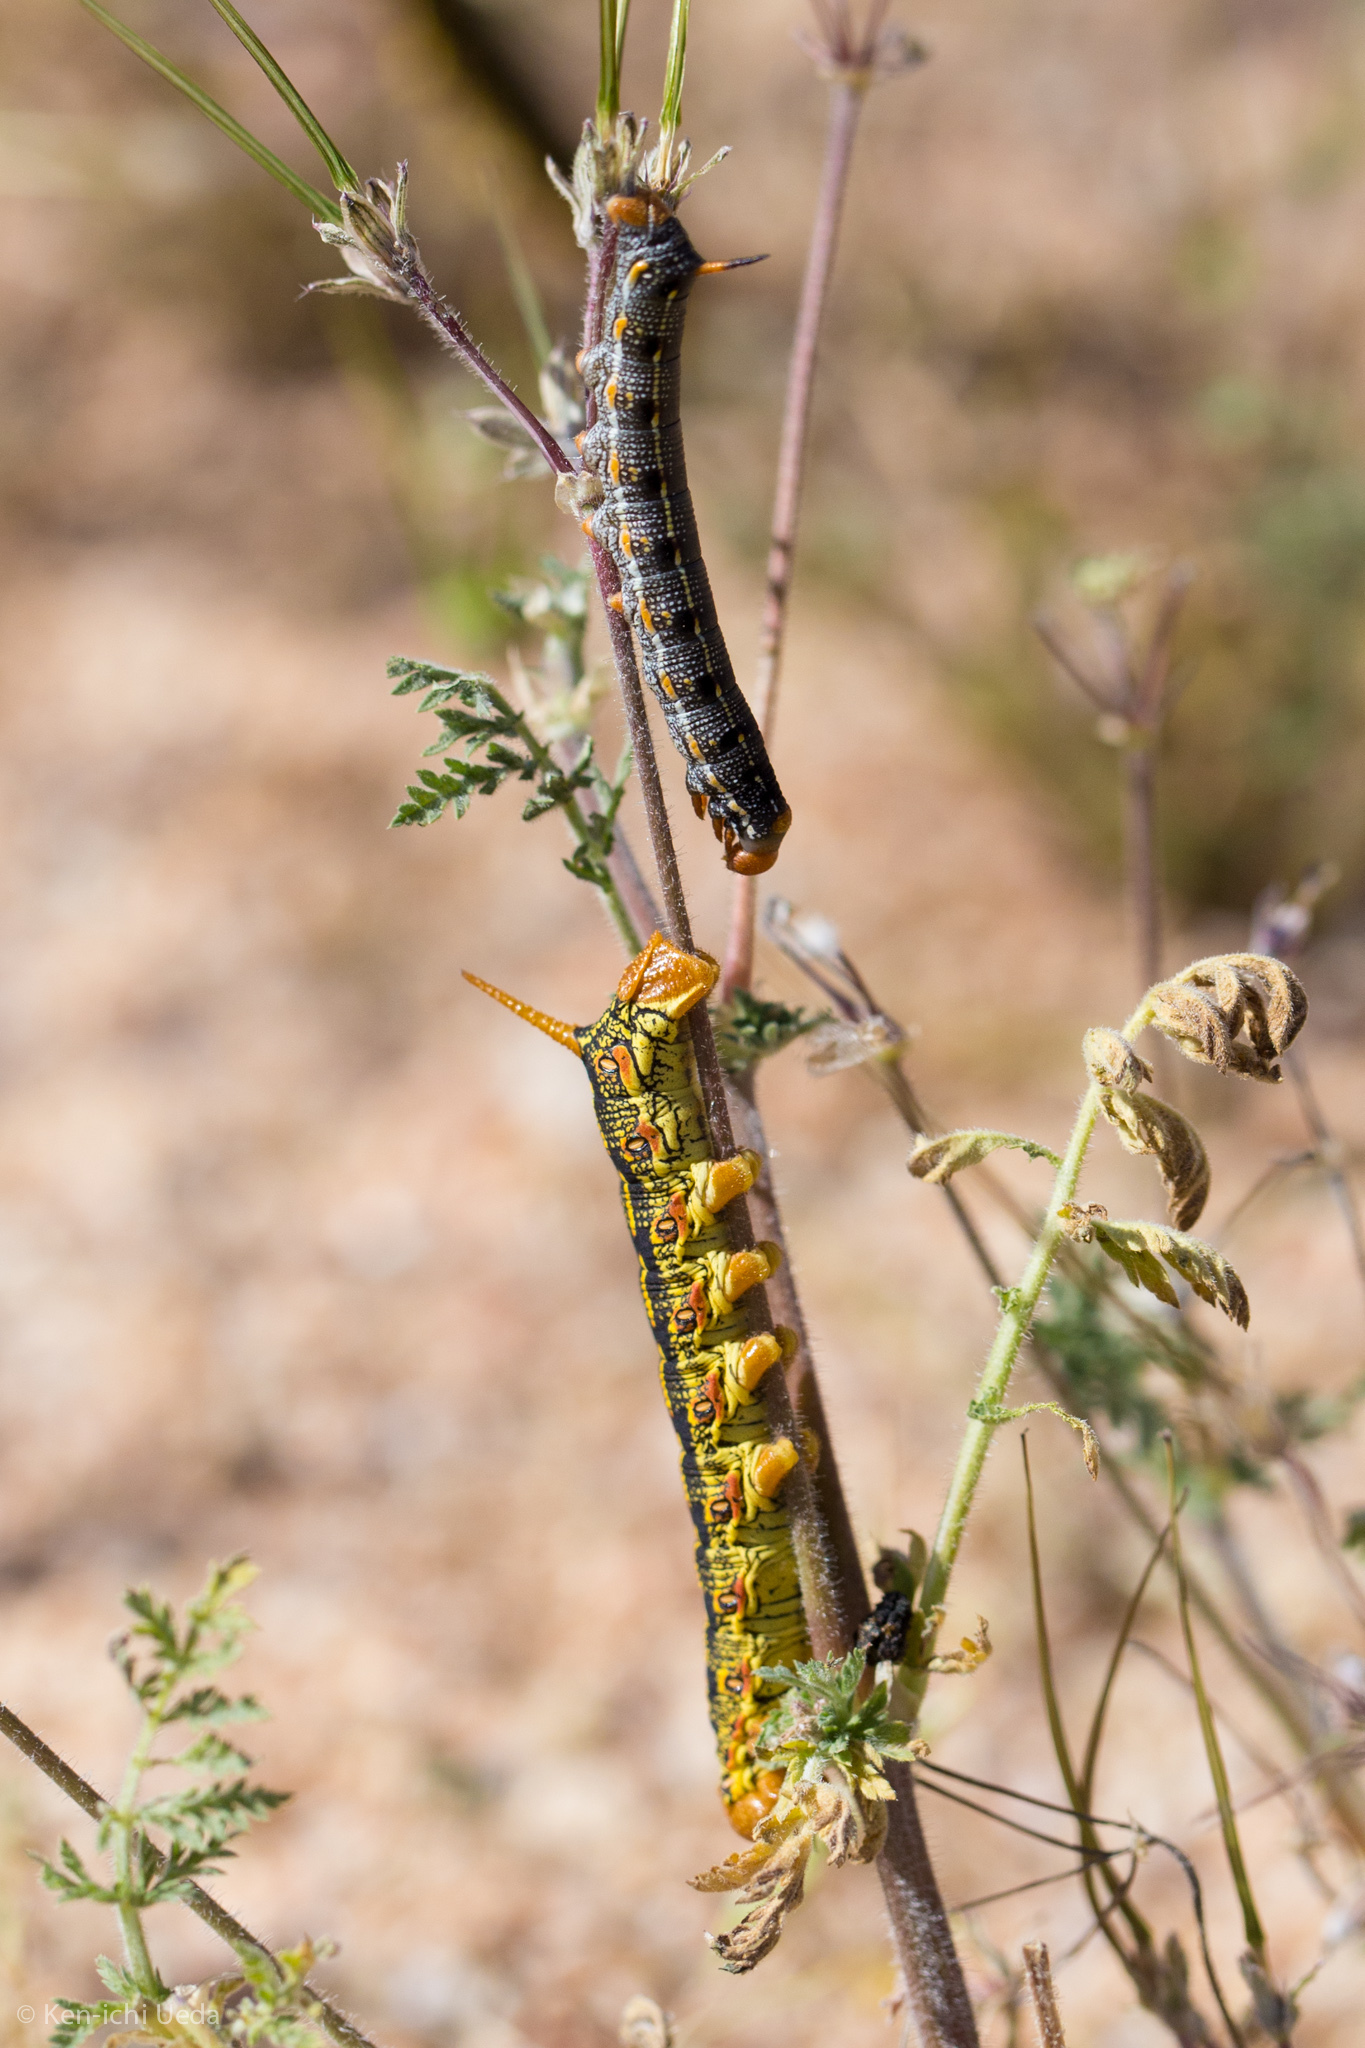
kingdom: Animalia
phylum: Arthropoda
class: Insecta
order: Lepidoptera
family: Sphingidae
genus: Hyles
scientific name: Hyles lineata
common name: White-lined sphinx
